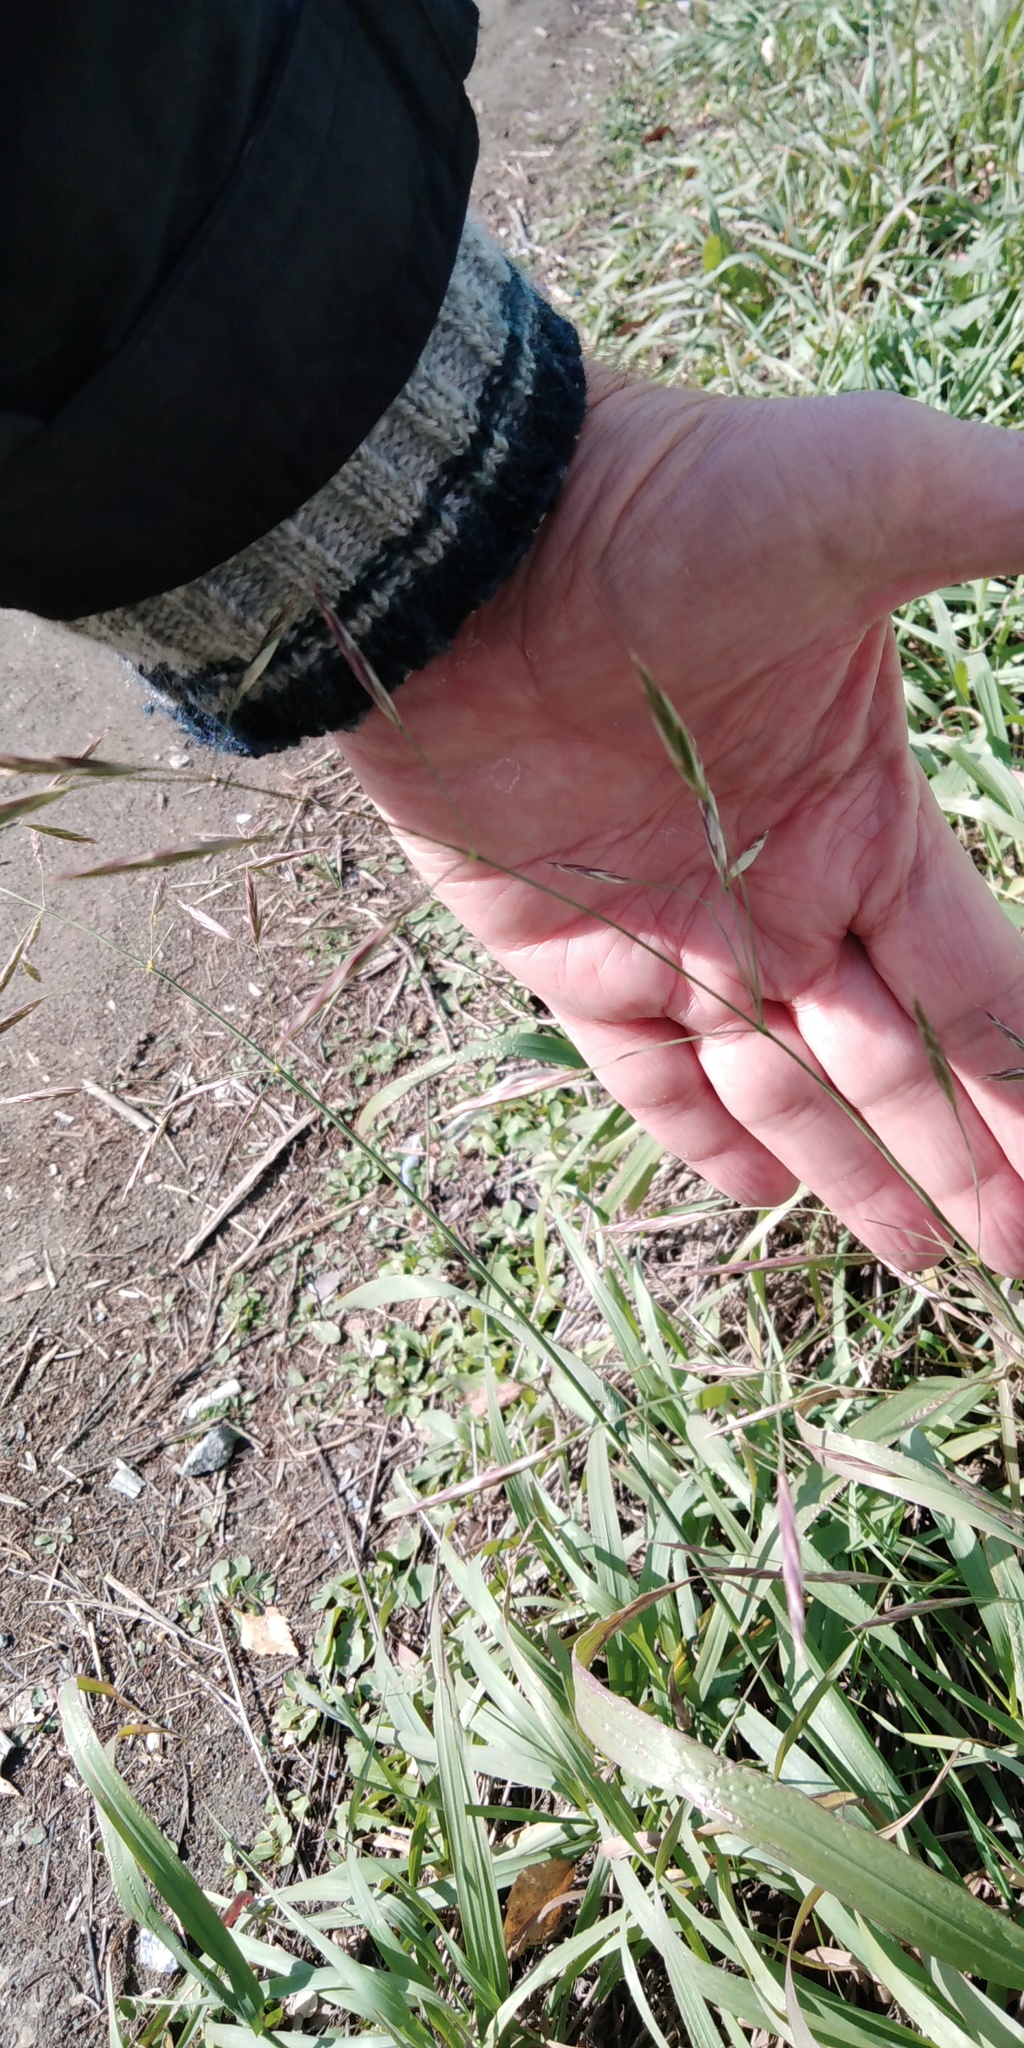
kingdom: Plantae
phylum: Tracheophyta
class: Liliopsida
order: Poales
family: Poaceae
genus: Bromus
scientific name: Bromus inermis
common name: Smooth brome
